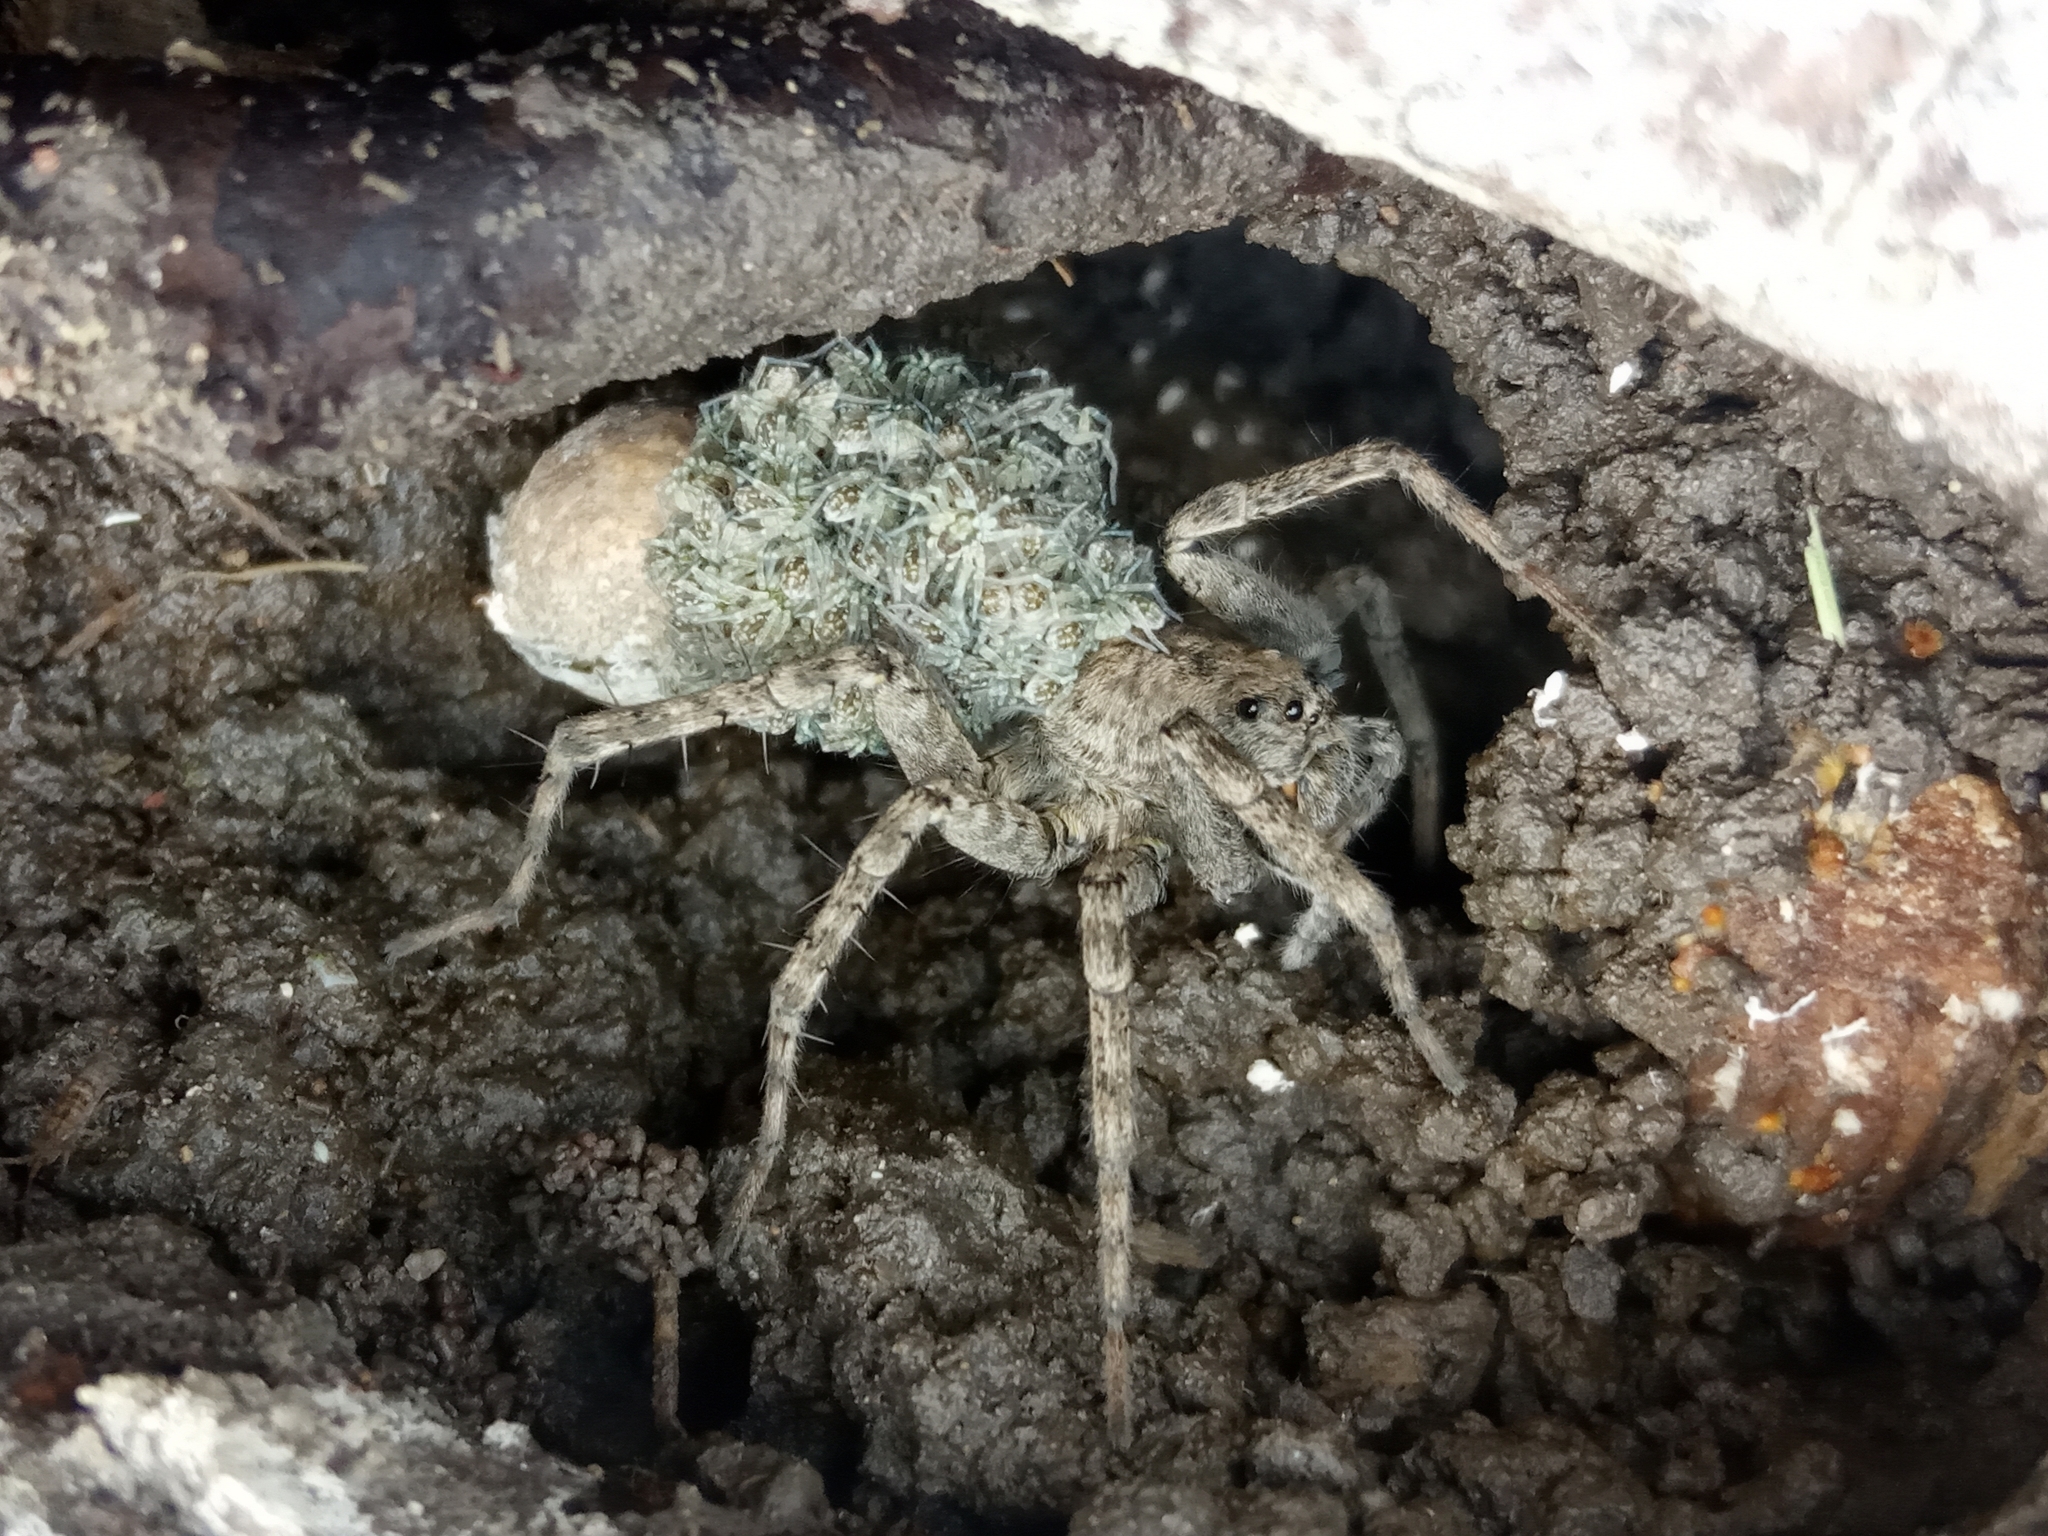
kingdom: Animalia
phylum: Arthropoda
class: Arachnida
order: Araneae
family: Lycosidae
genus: Pardosa
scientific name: Pardosa
